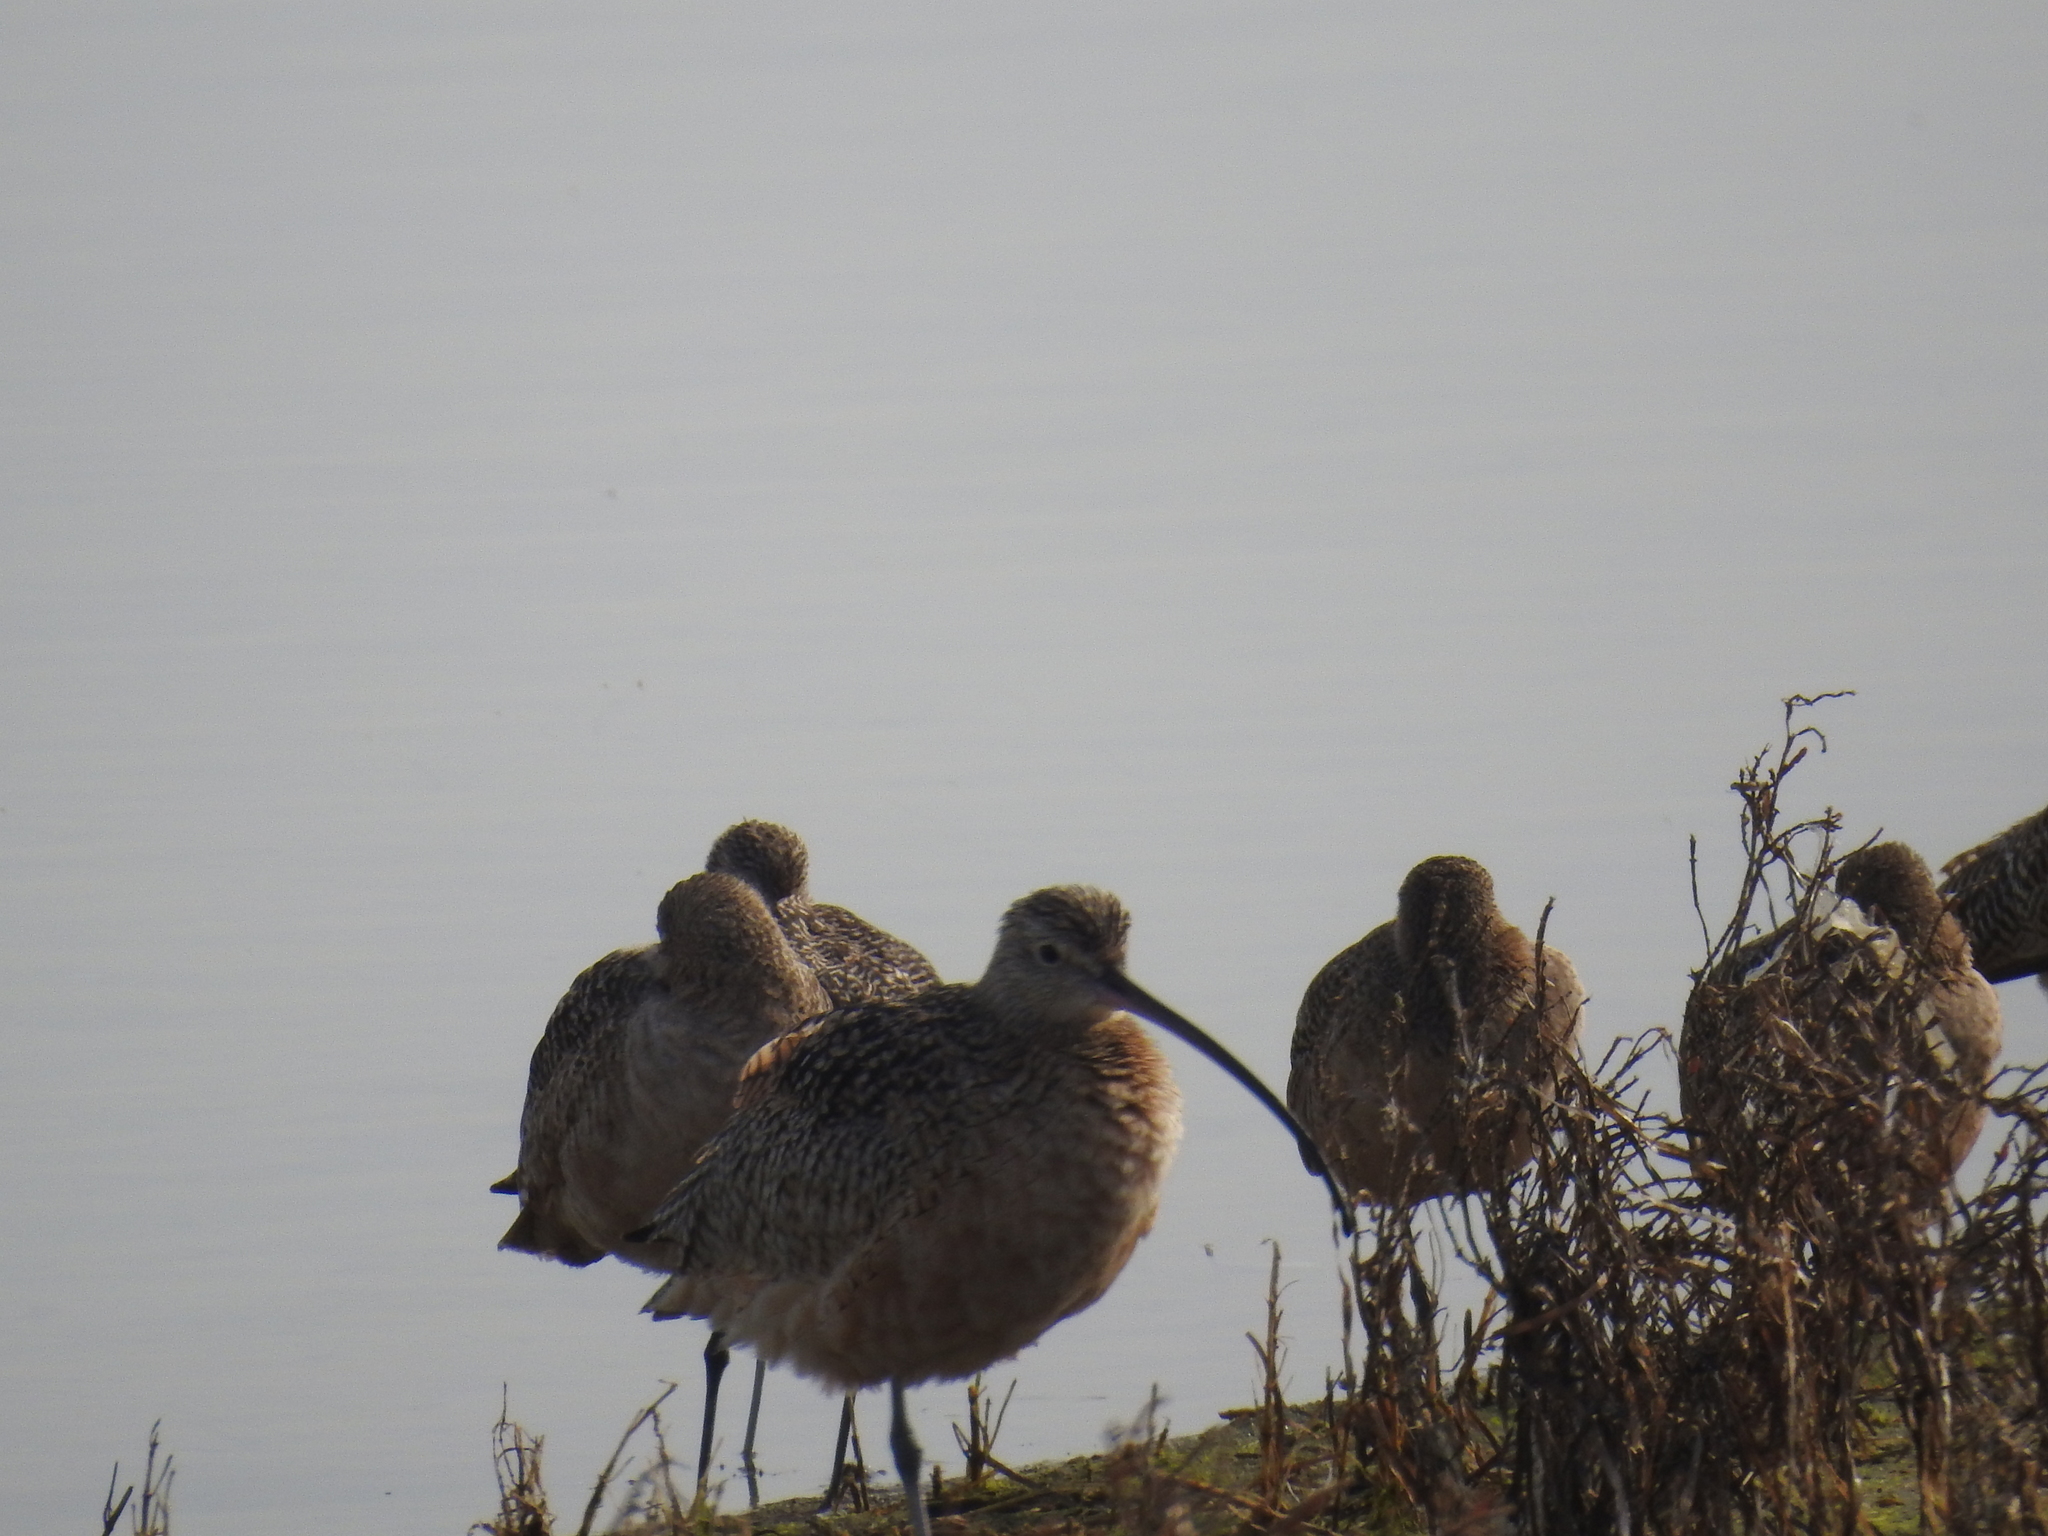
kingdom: Animalia
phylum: Chordata
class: Aves
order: Charadriiformes
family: Scolopacidae
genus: Numenius
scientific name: Numenius americanus
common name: Long-billed curlew
